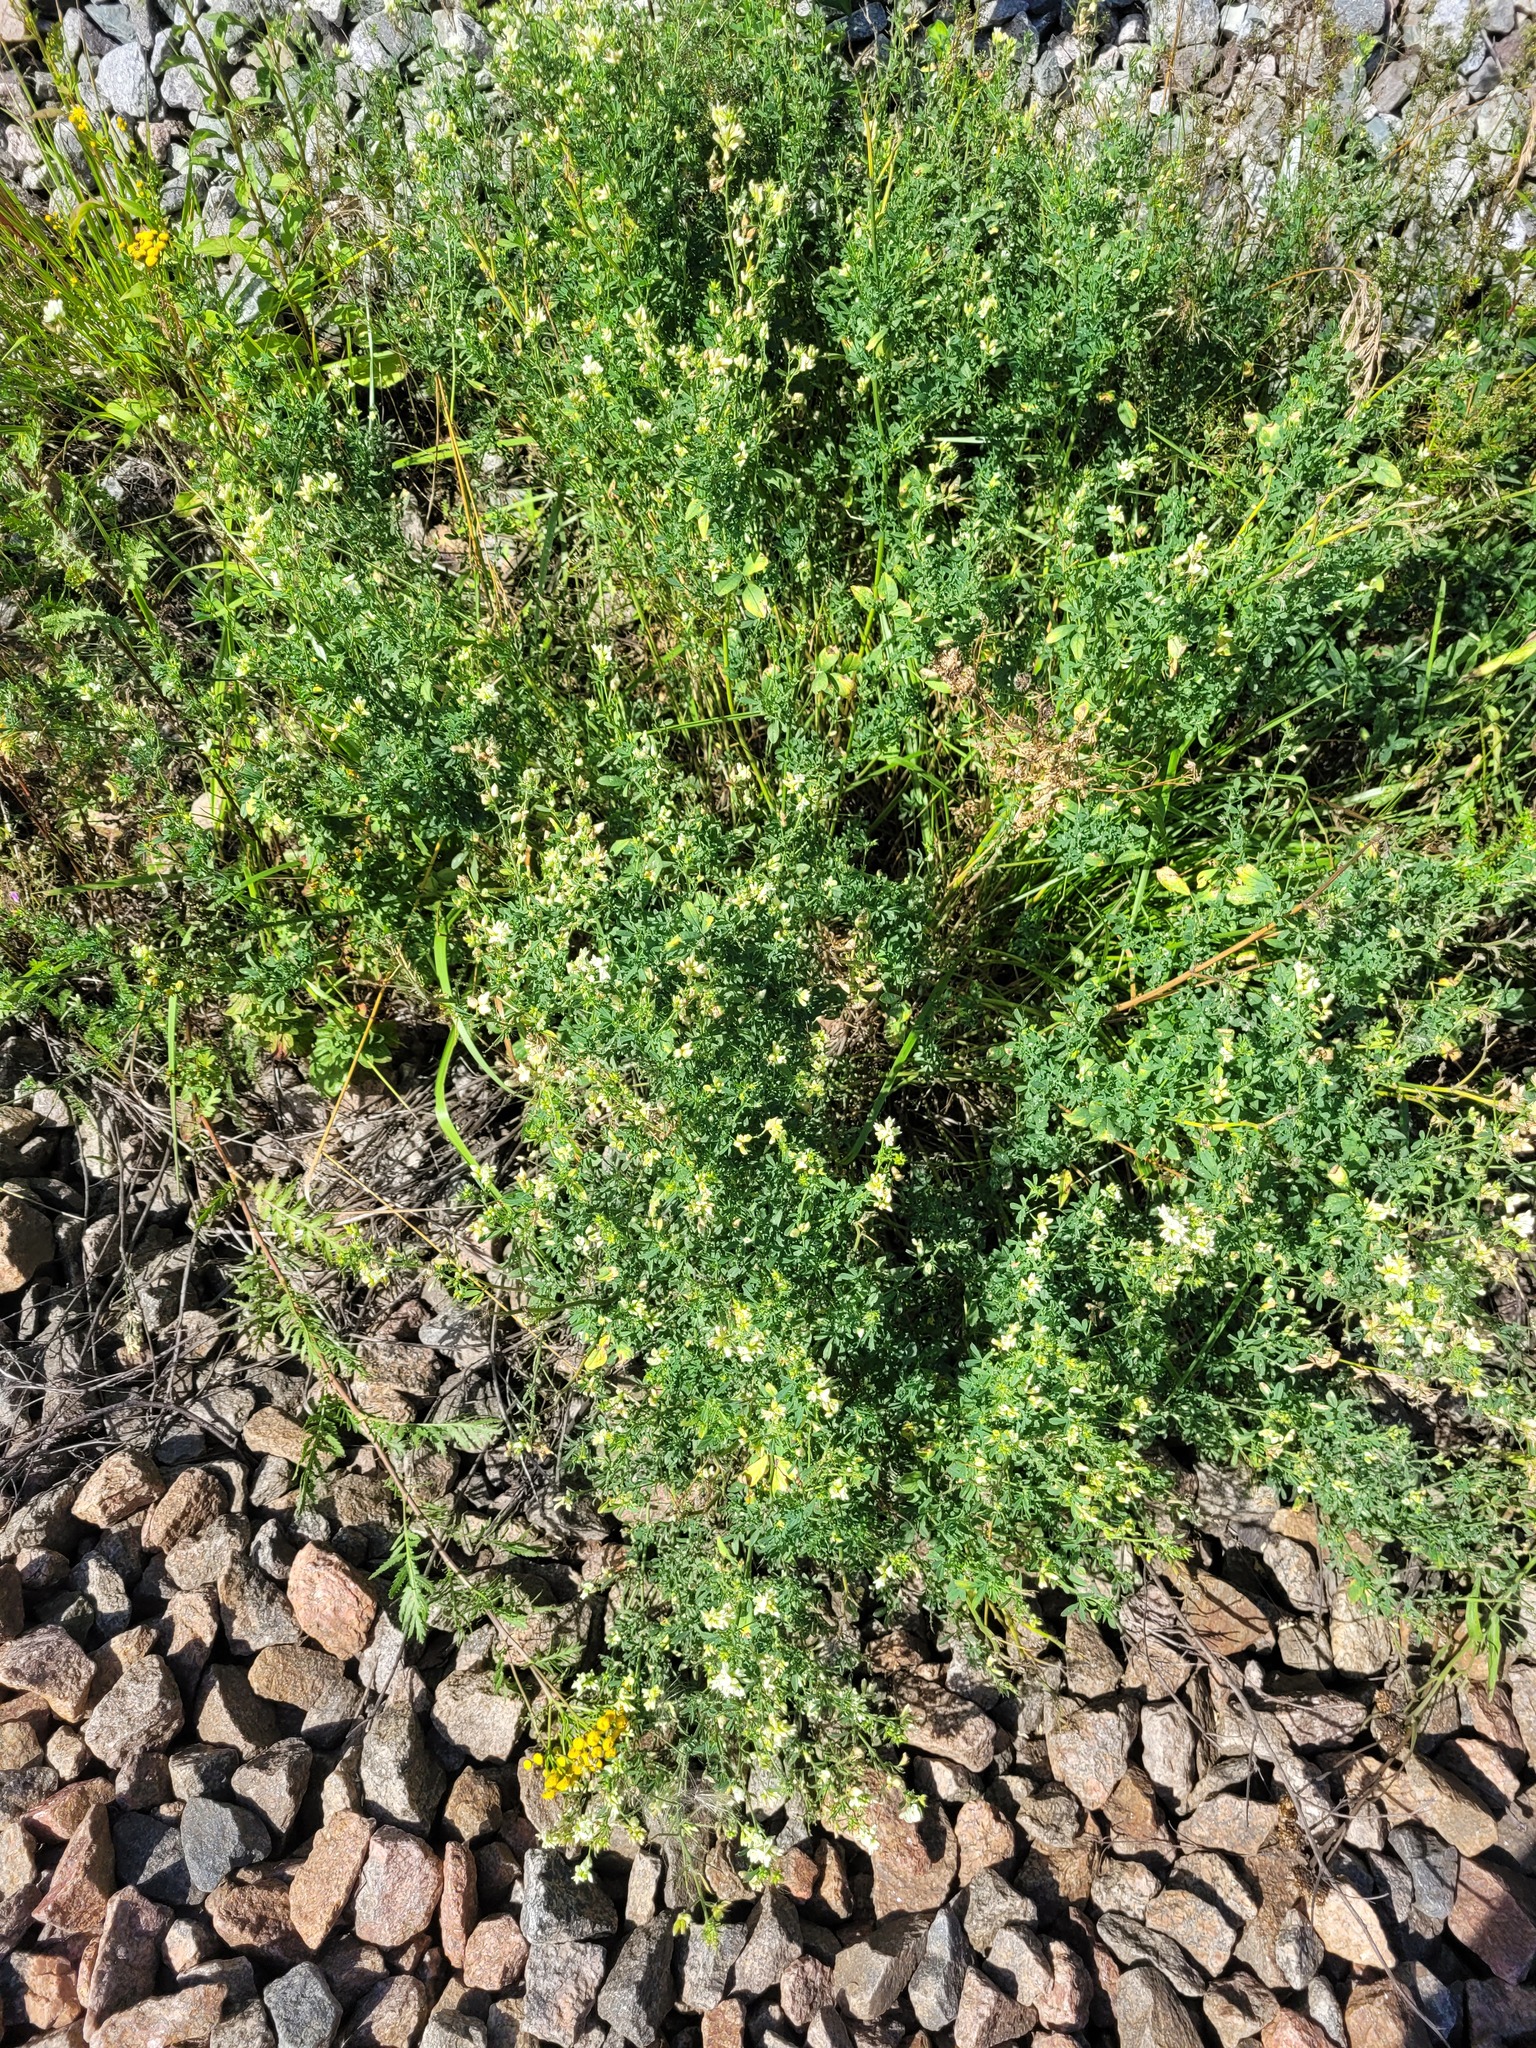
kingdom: Plantae
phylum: Tracheophyta
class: Magnoliopsida
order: Fabales
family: Fabaceae
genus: Medicago
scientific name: Medicago varia
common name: Sand lucerne
